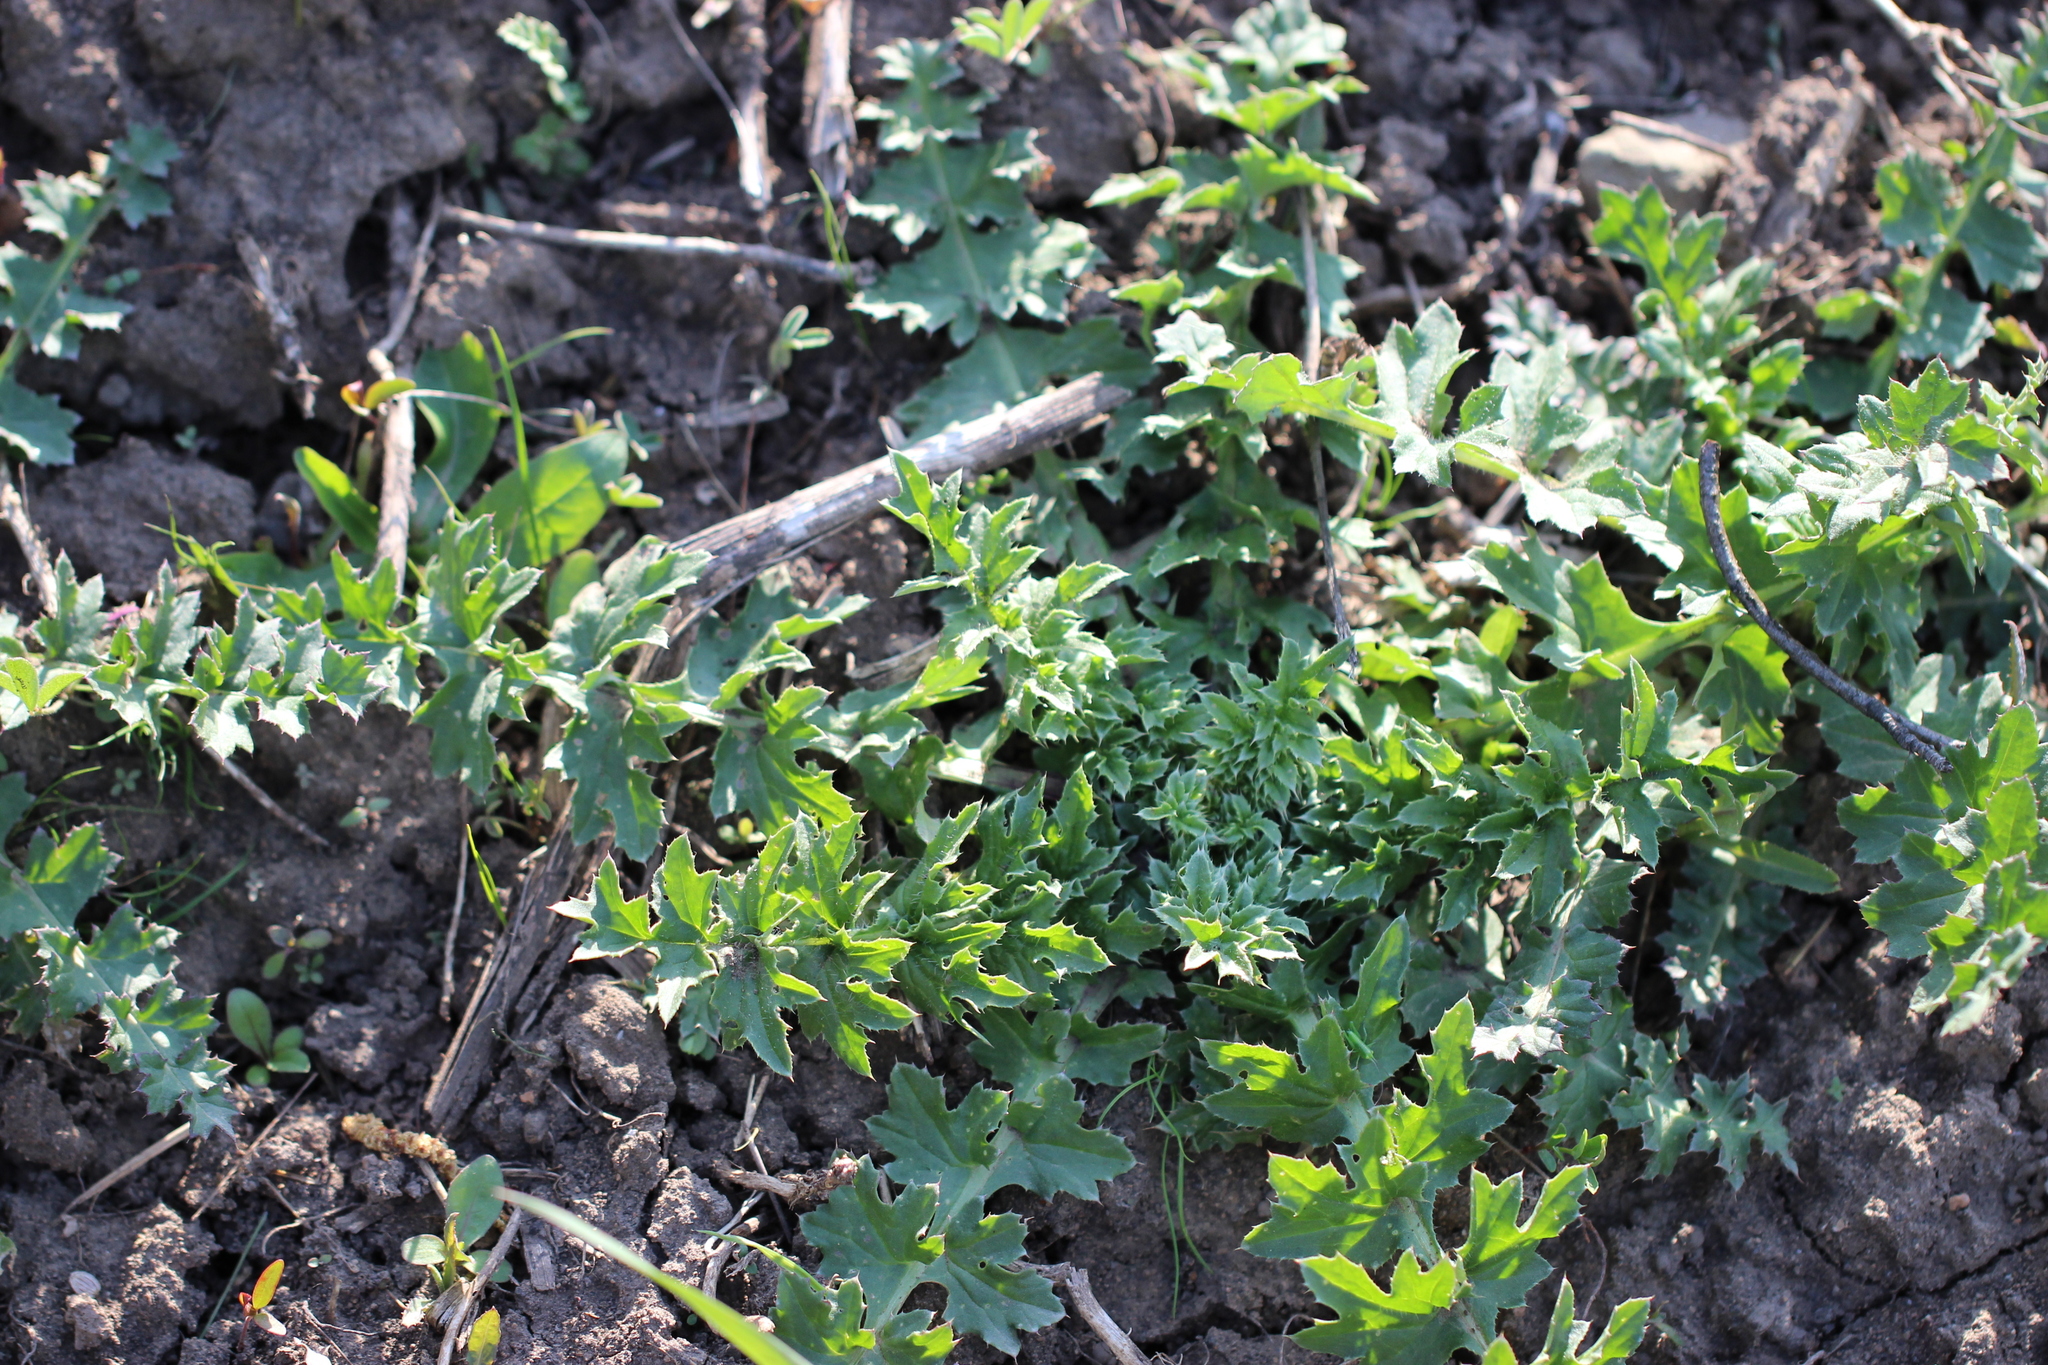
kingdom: Plantae
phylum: Tracheophyta
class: Magnoliopsida
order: Asterales
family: Asteraceae
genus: Carduus
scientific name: Carduus acanthoides
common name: Plumeless thistle
